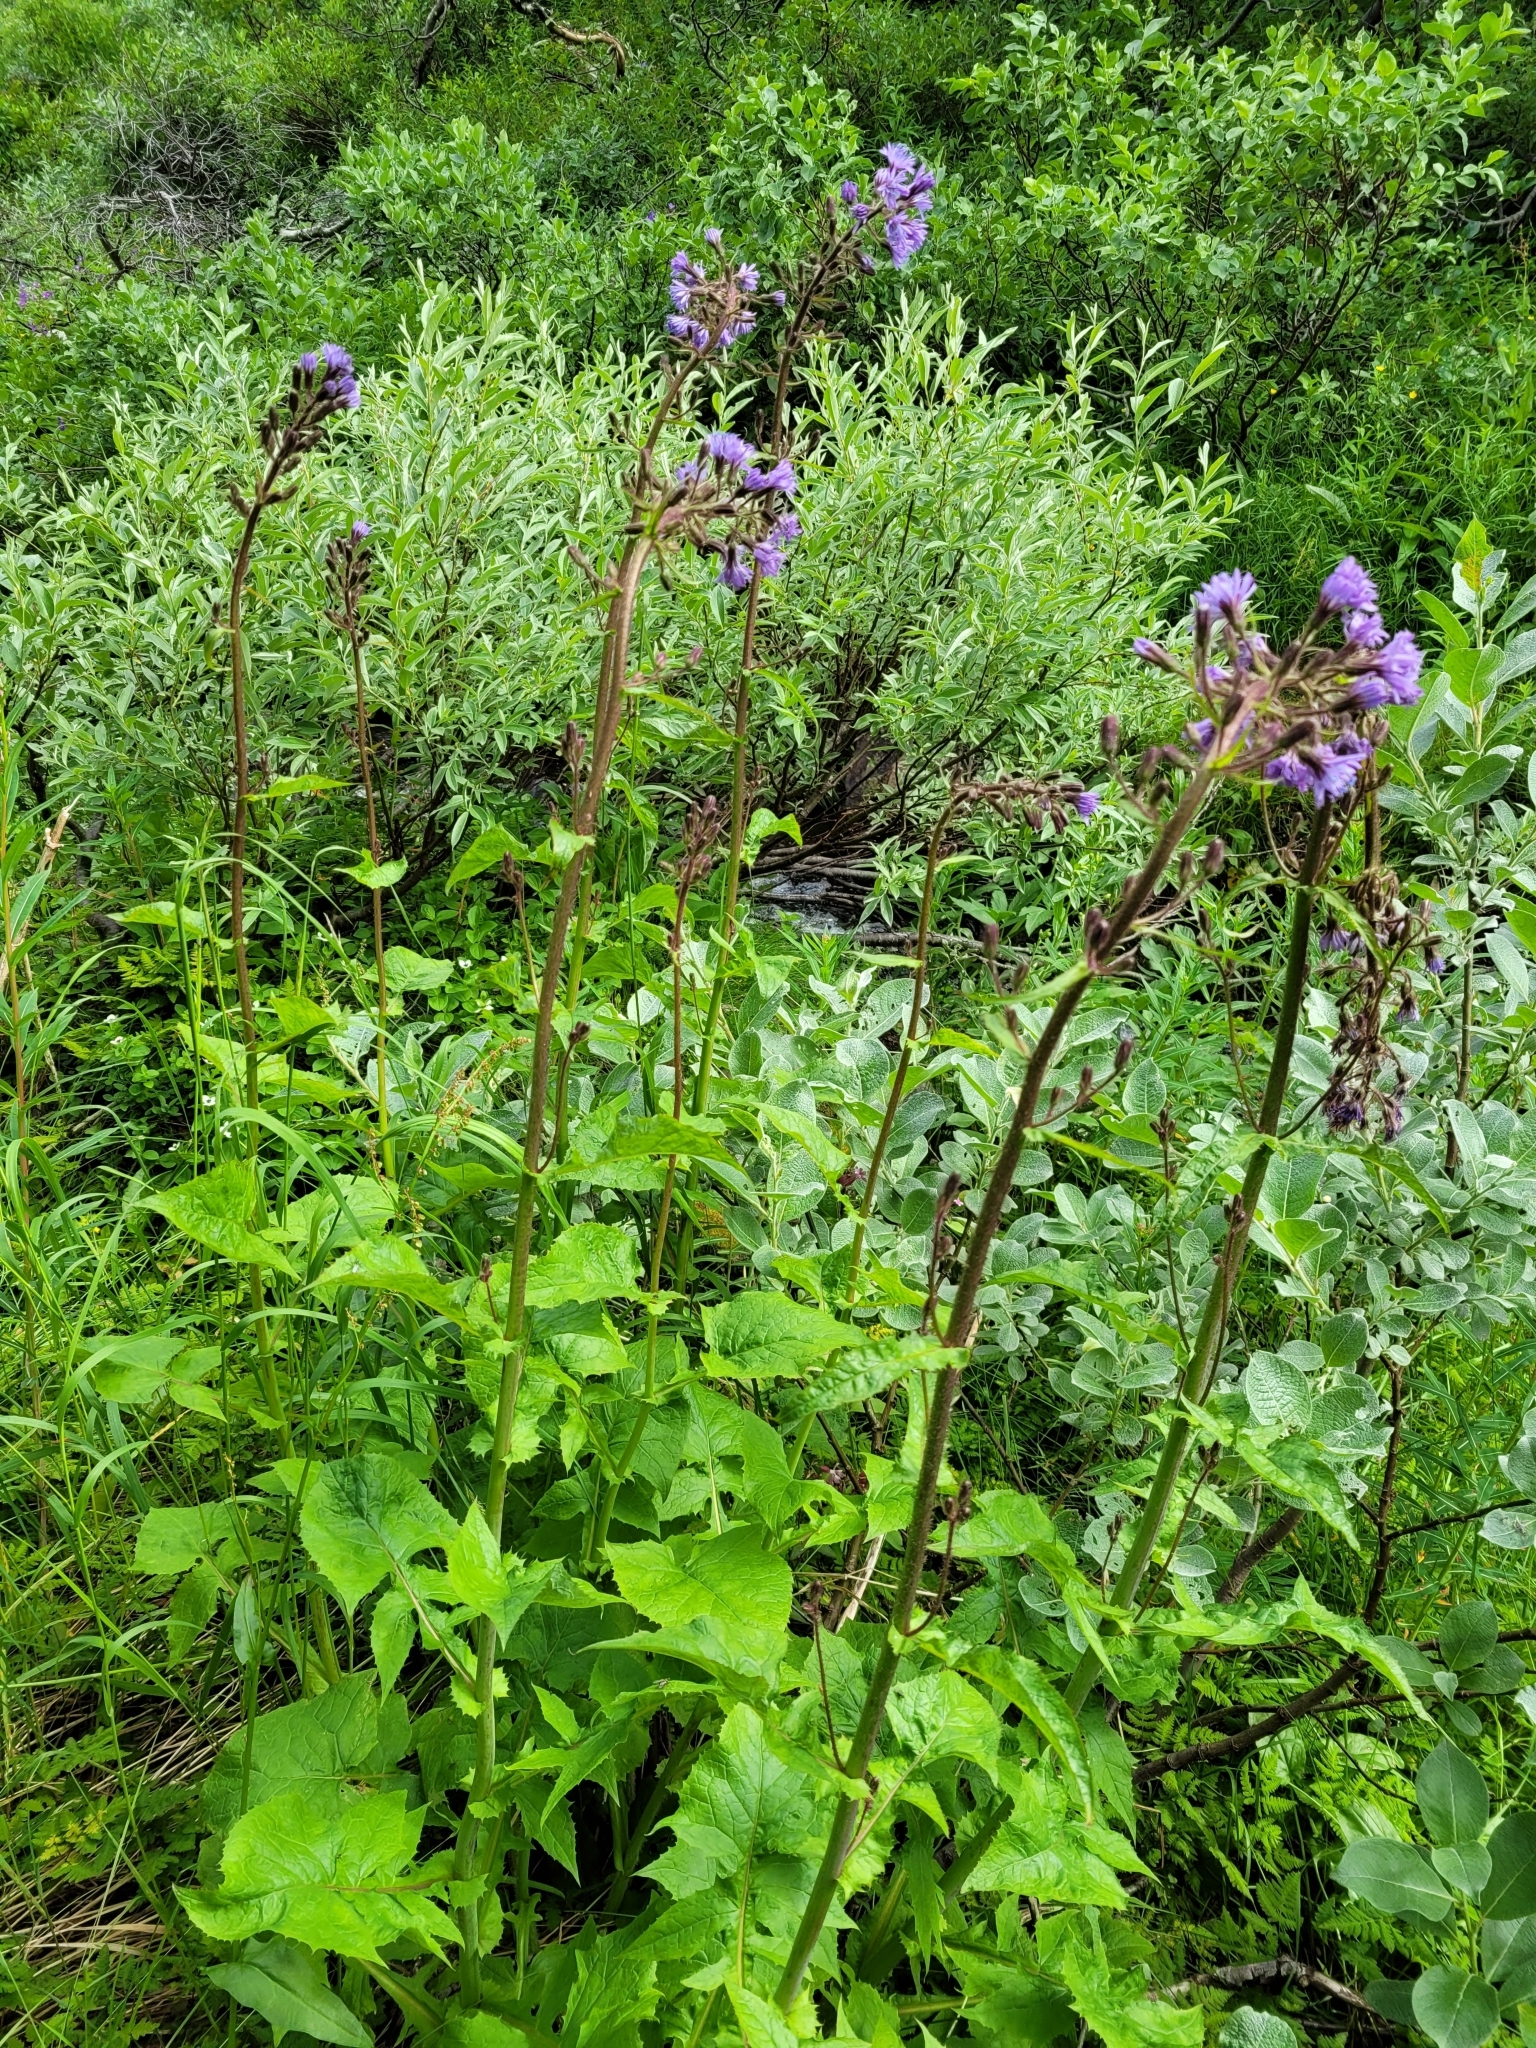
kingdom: Plantae
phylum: Tracheophyta
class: Magnoliopsida
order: Asterales
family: Asteraceae
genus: Cicerbita
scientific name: Cicerbita alpina
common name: Alpine blue-sow-thistle
